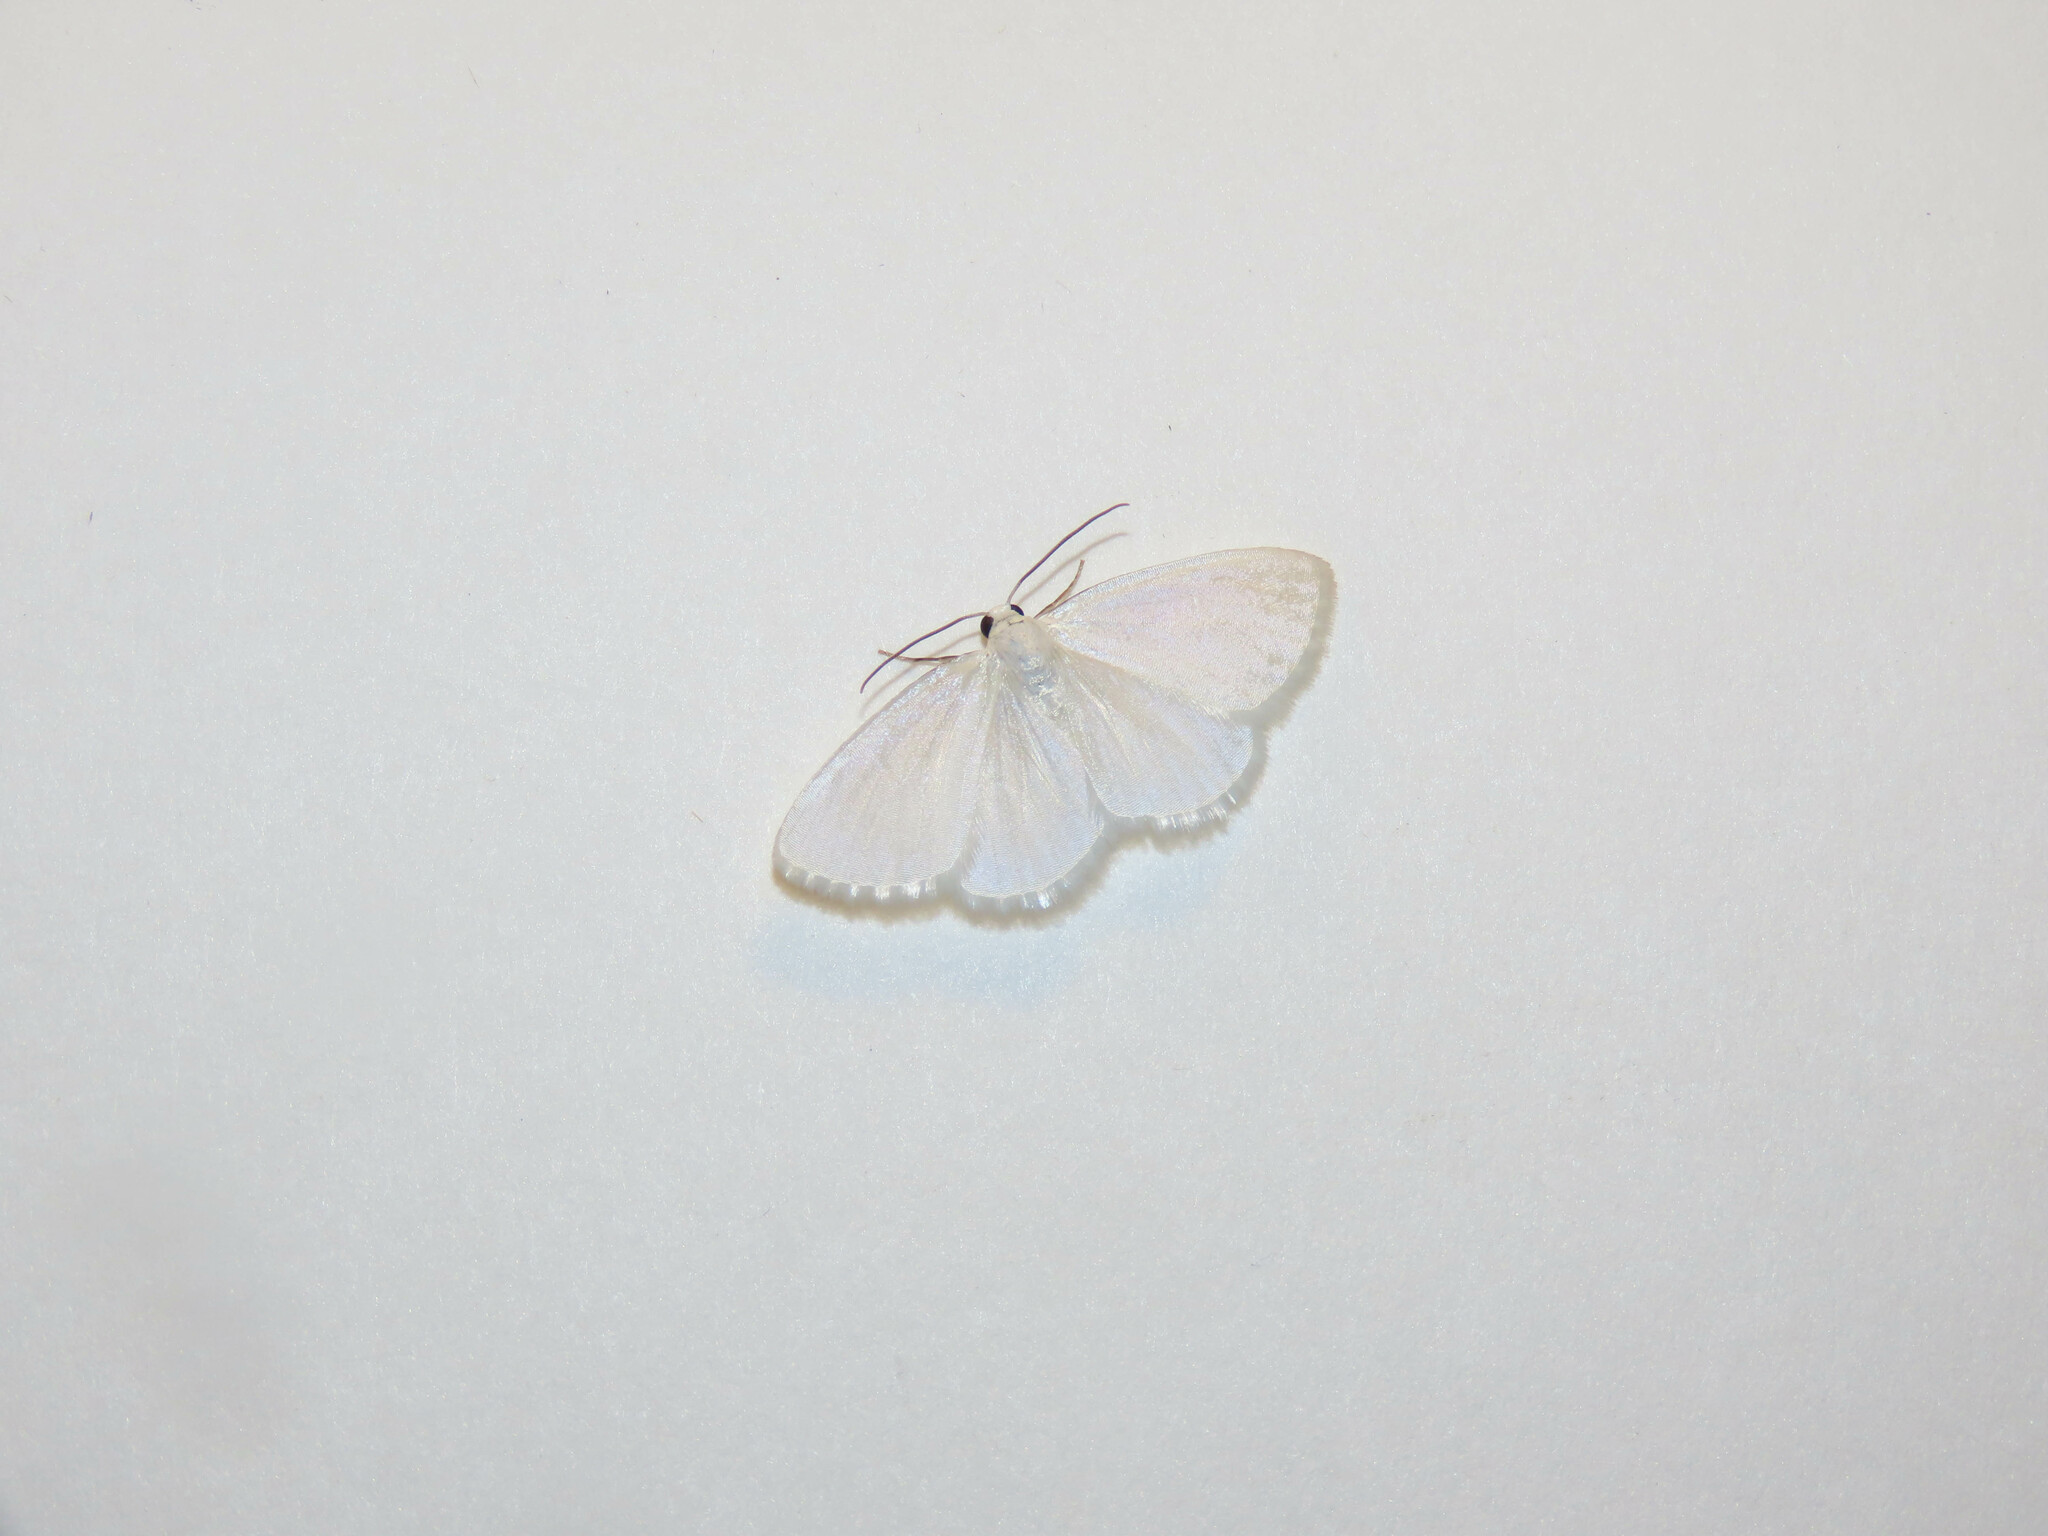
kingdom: Animalia
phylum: Arthropoda
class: Insecta
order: Lepidoptera
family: Geometridae
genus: Lomographa
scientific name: Lomographa vestaliata
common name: White spring moth
